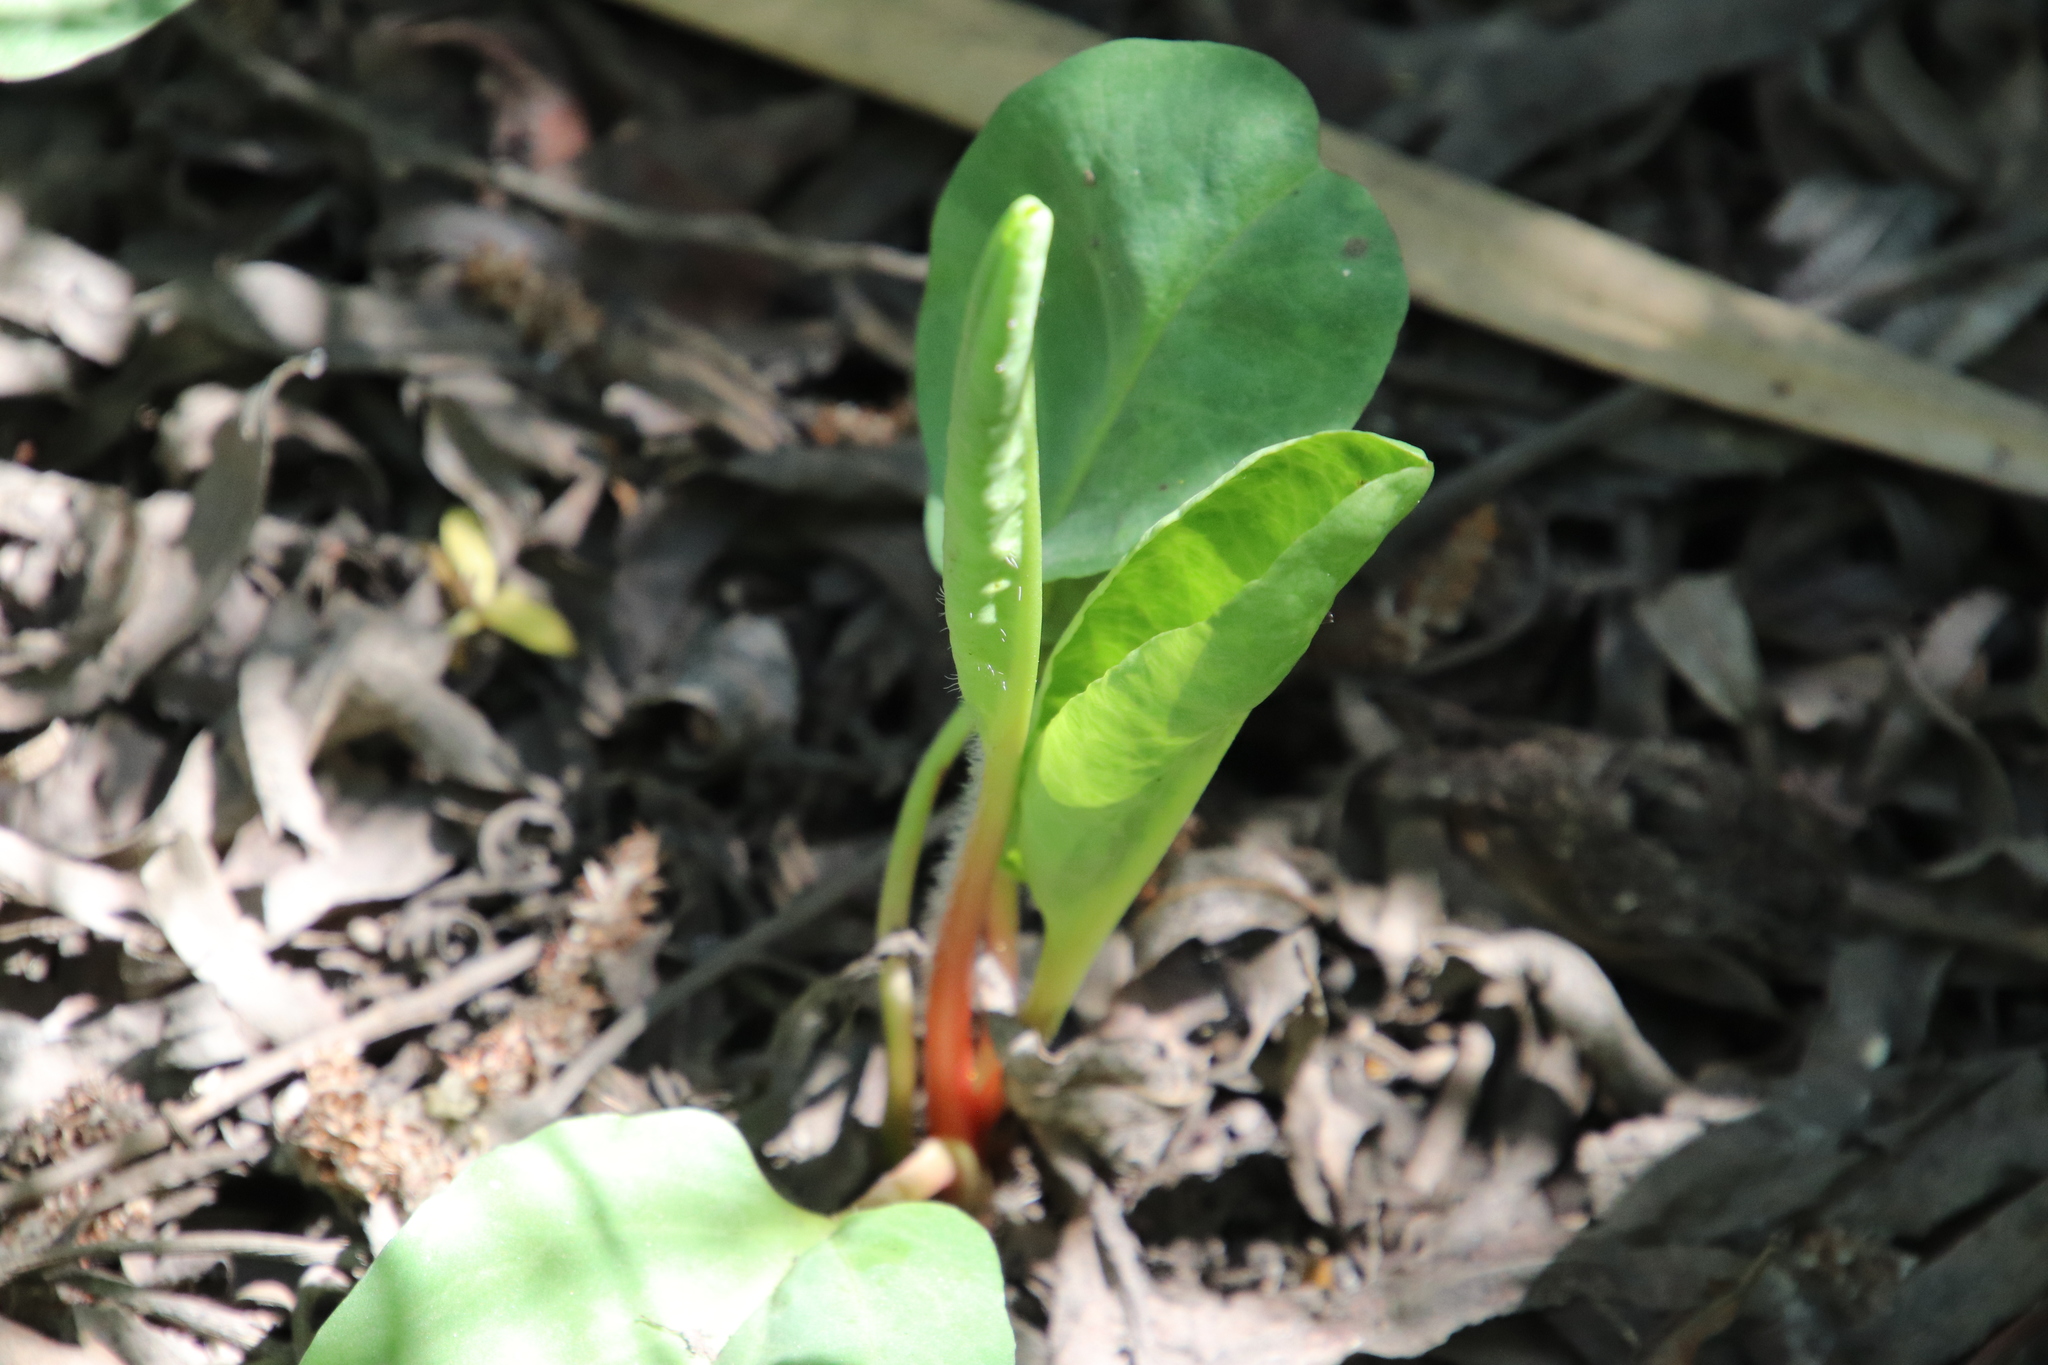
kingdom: Plantae
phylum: Tracheophyta
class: Magnoliopsida
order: Piperales
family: Saururaceae
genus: Anemopsis
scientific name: Anemopsis californica
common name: Apache-beads
